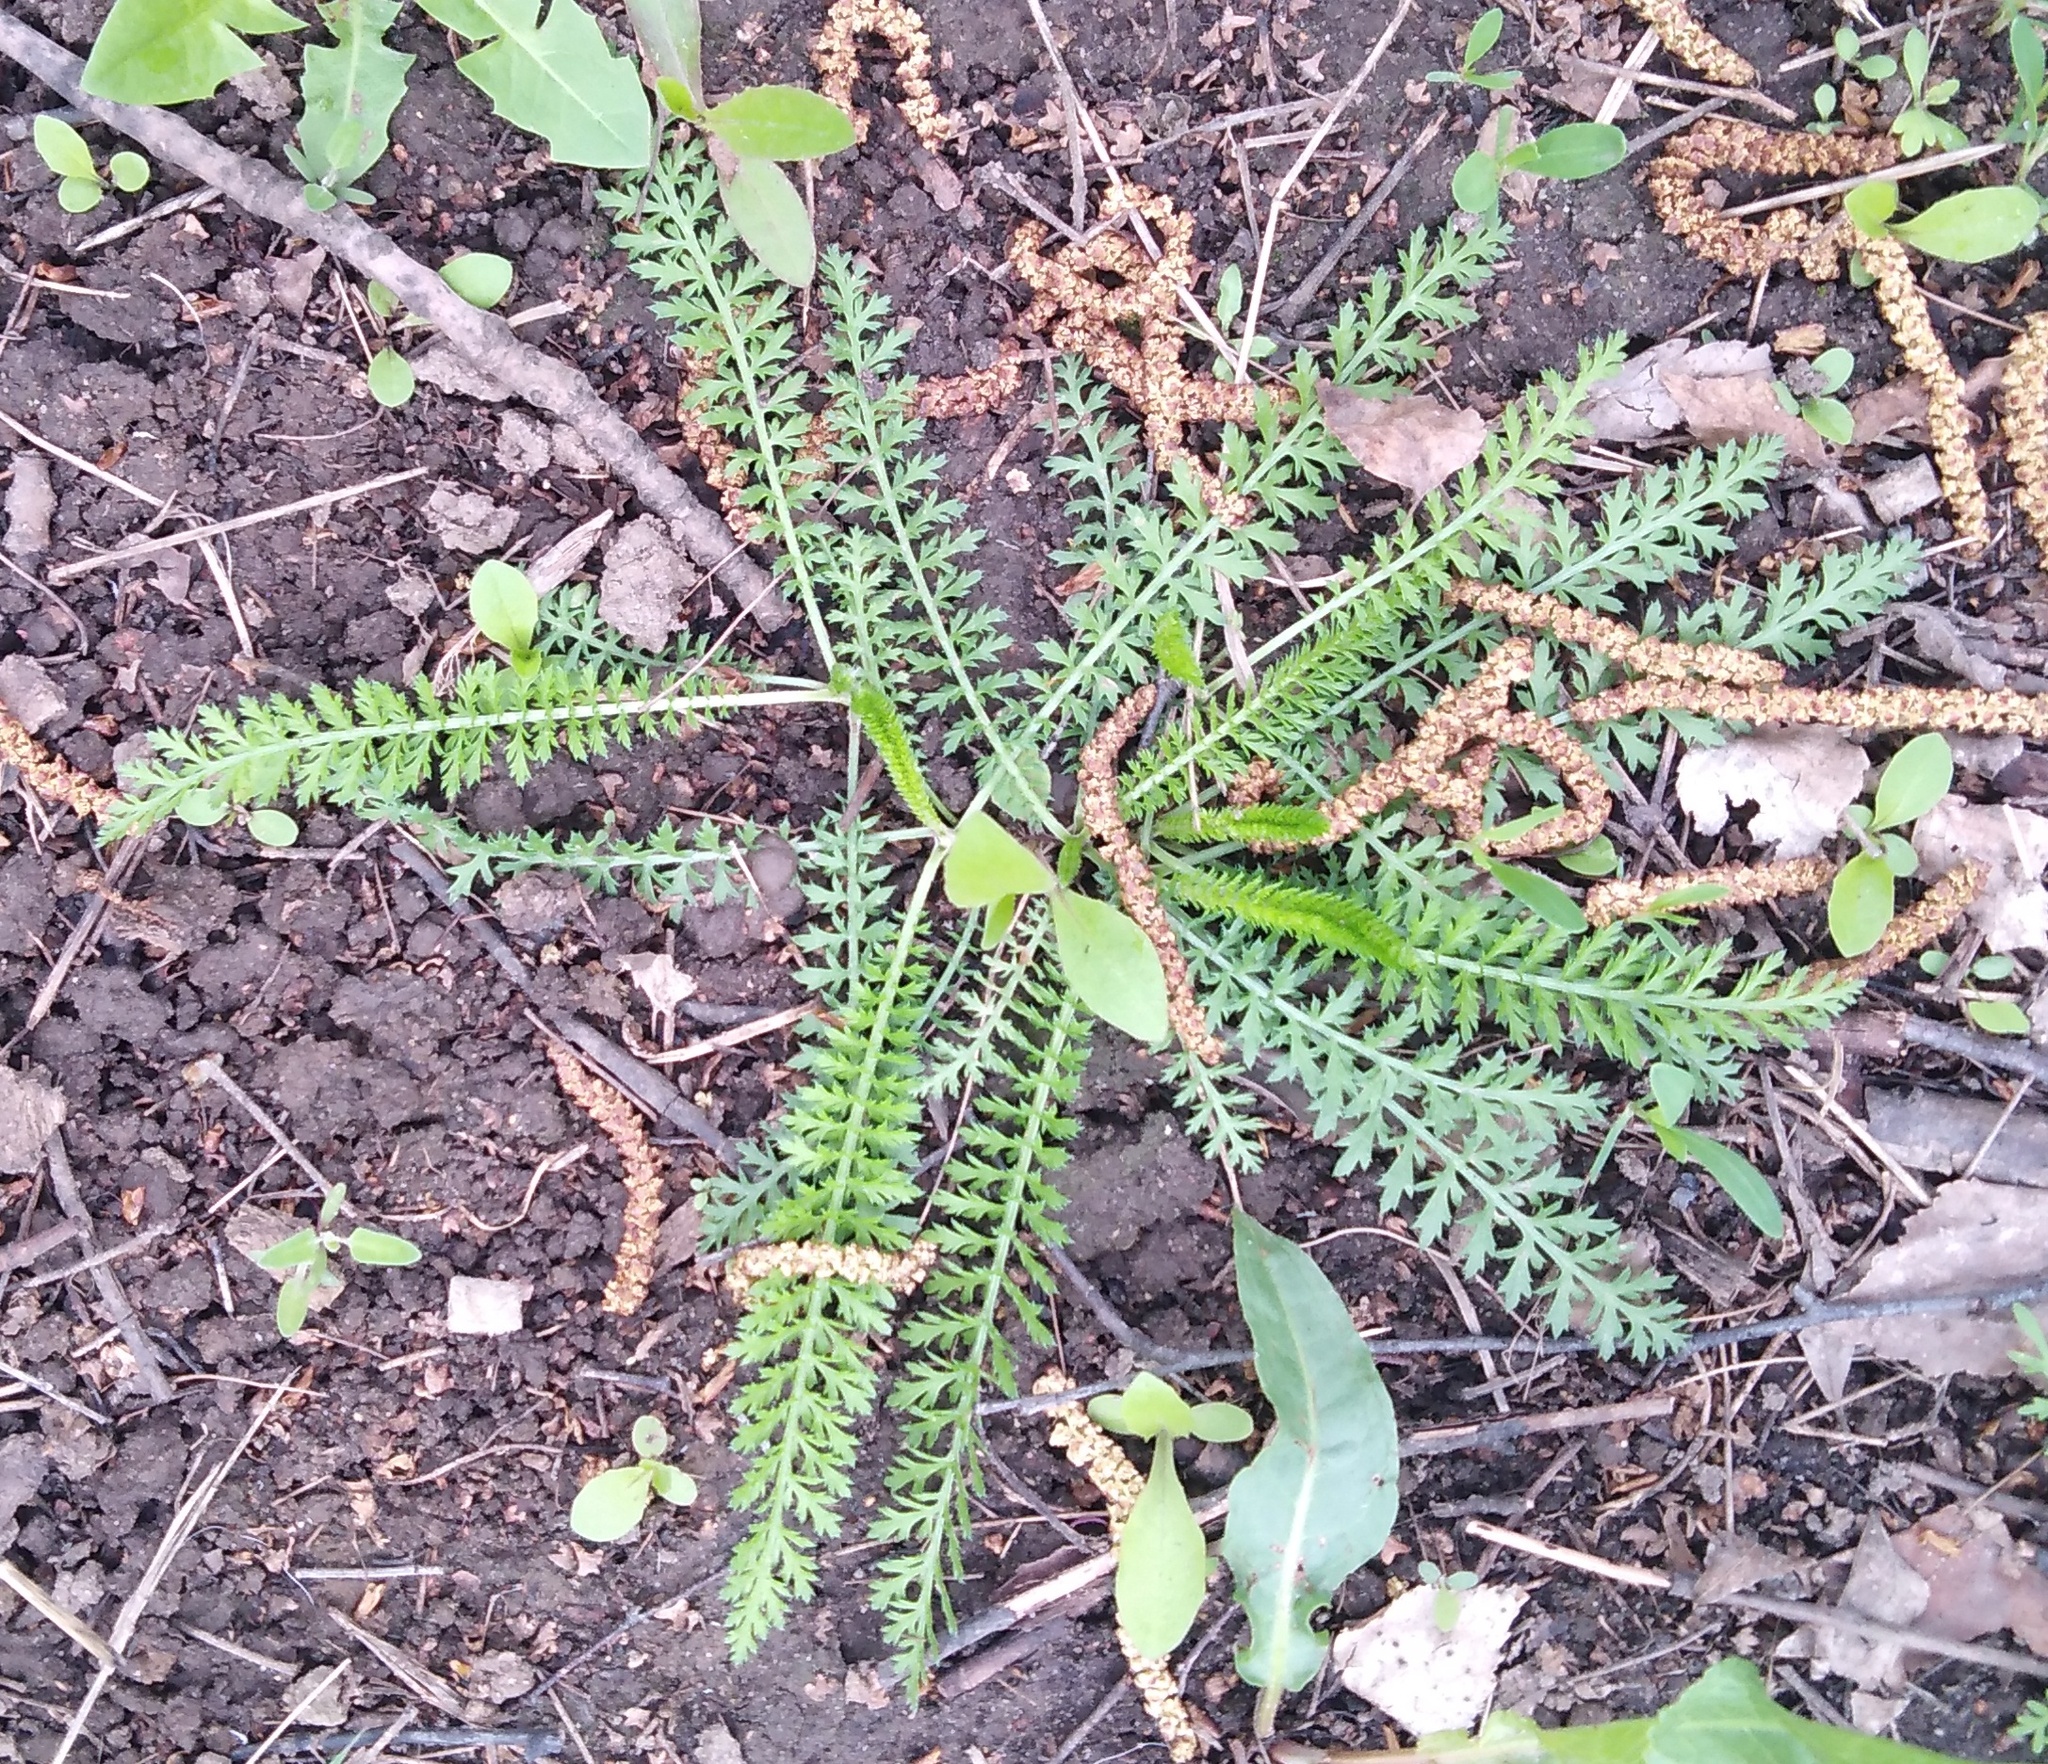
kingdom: Plantae
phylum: Tracheophyta
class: Magnoliopsida
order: Asterales
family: Asteraceae
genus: Achillea
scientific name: Achillea millefolium
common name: Yarrow
